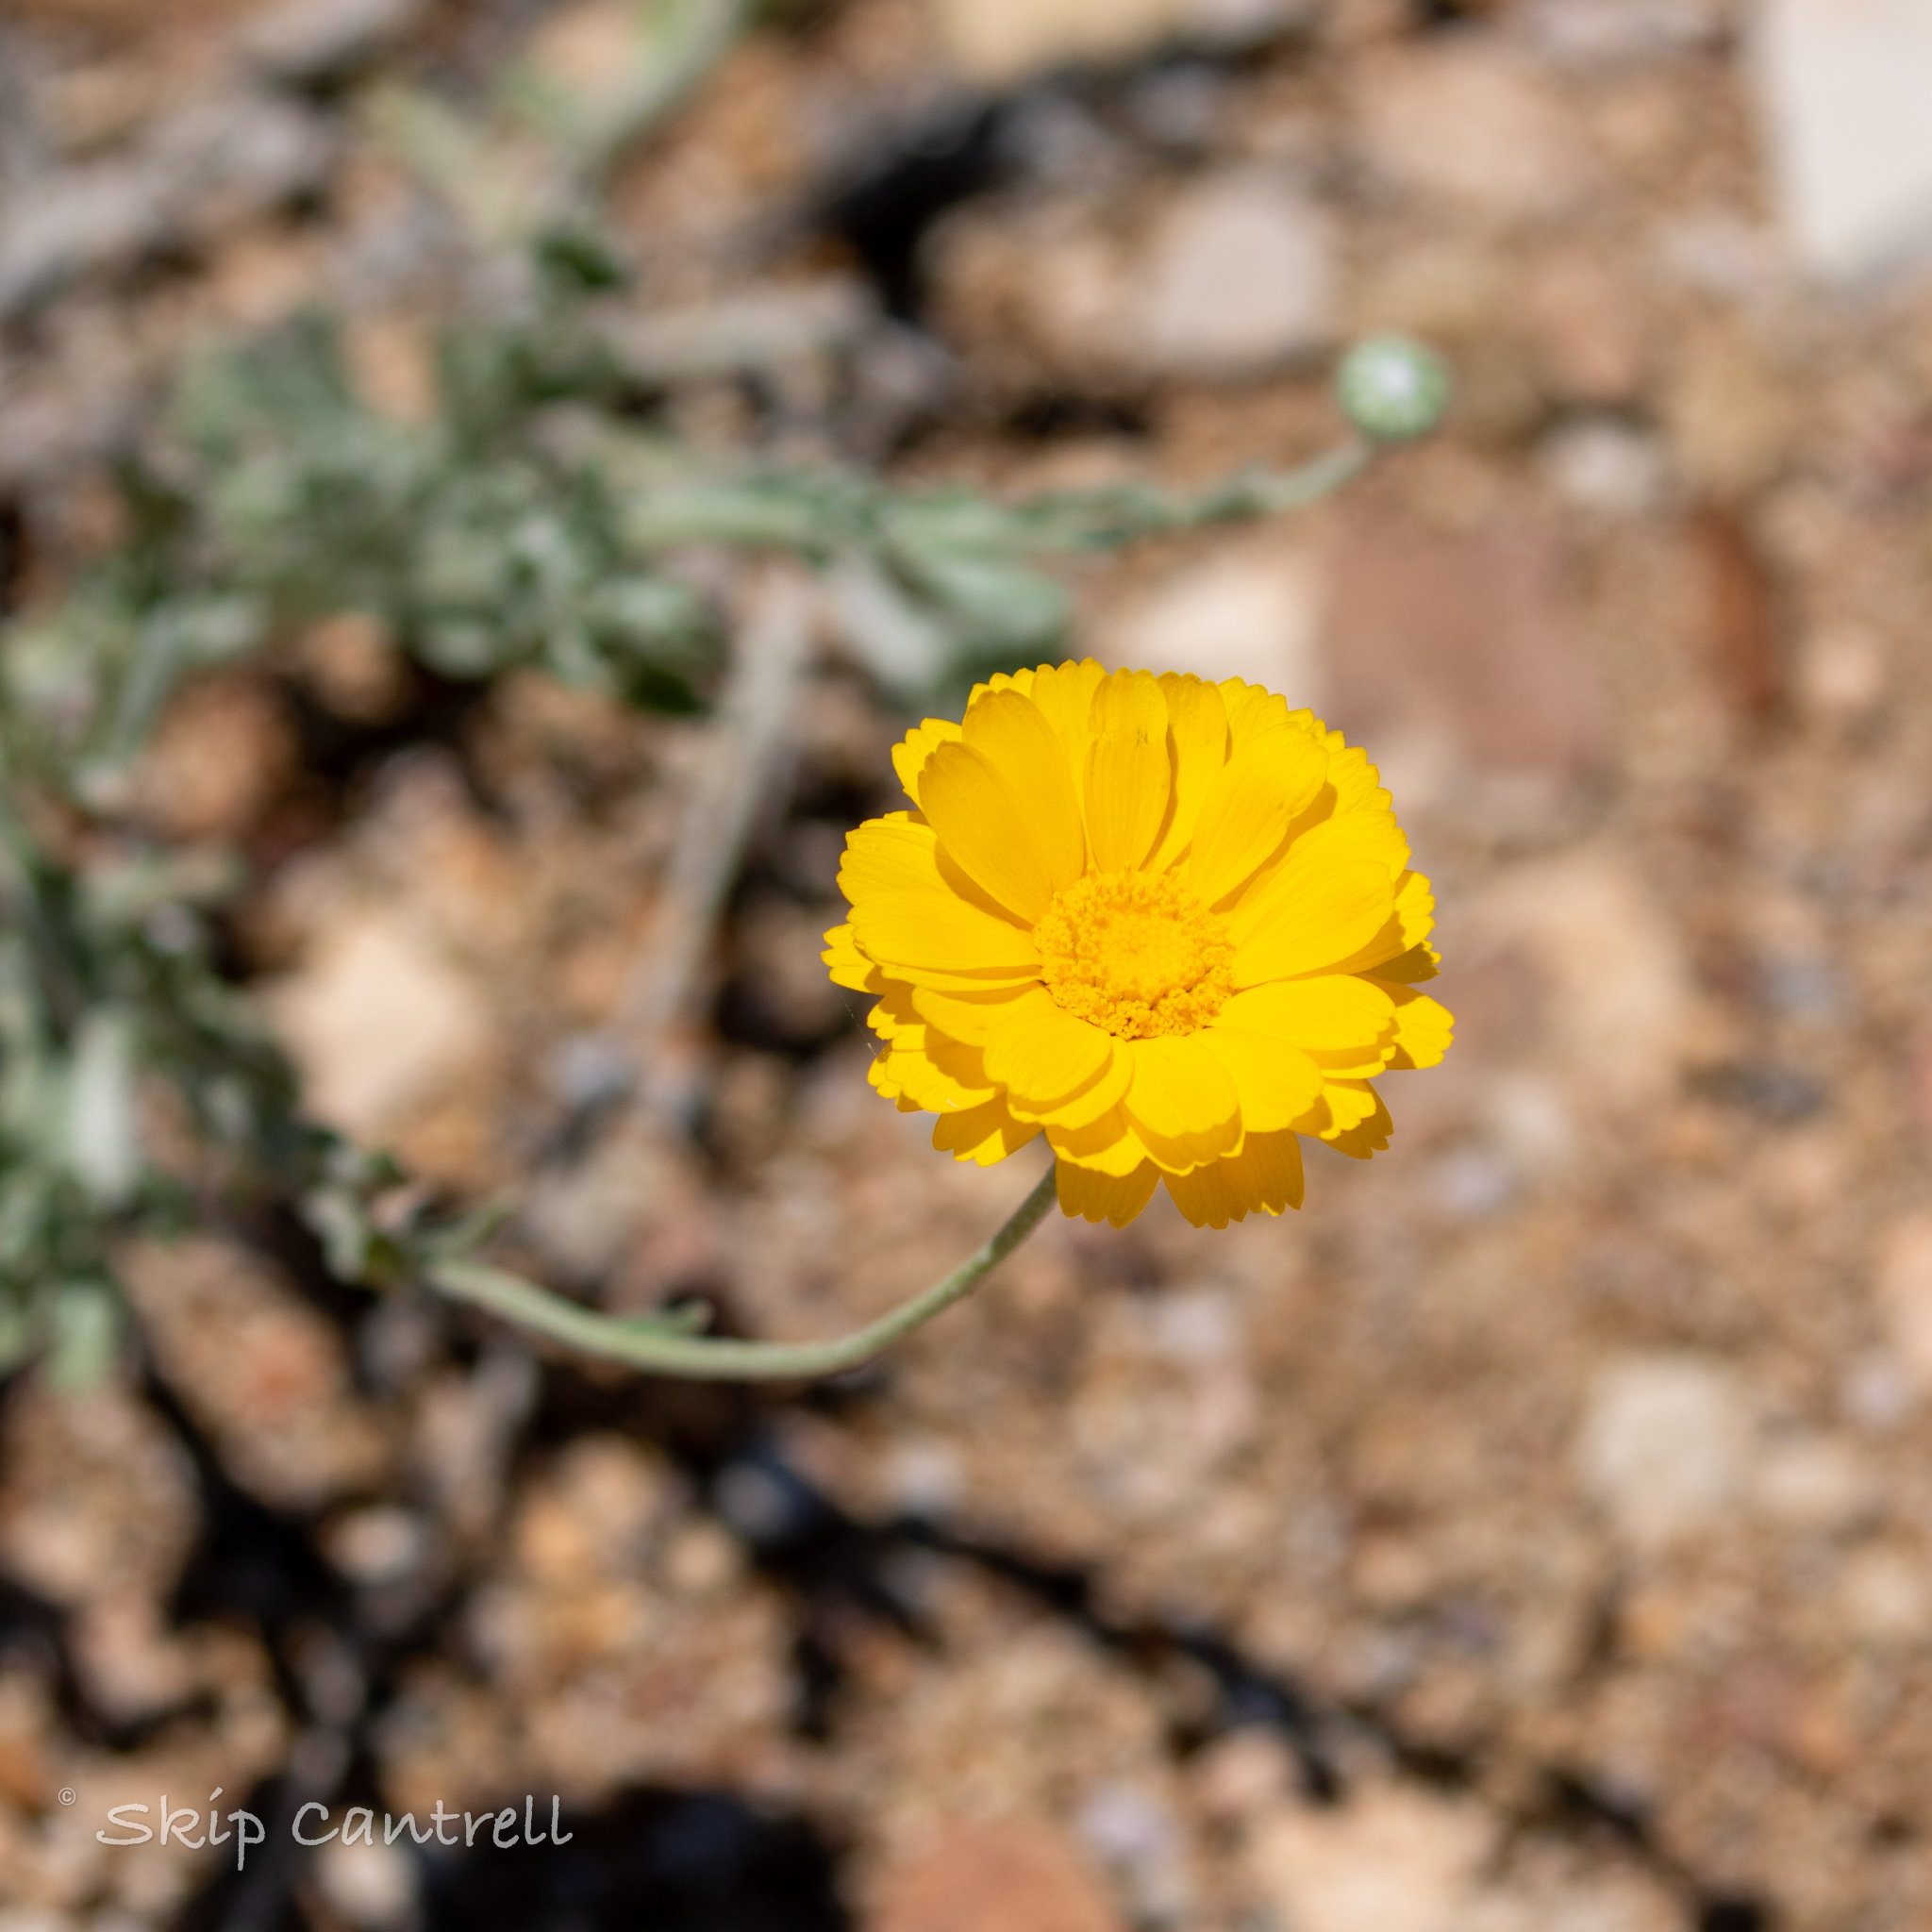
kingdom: Plantae
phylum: Tracheophyta
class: Magnoliopsida
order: Asterales
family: Asteraceae
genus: Baileya
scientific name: Baileya multiradiata
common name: Desert-marigold
